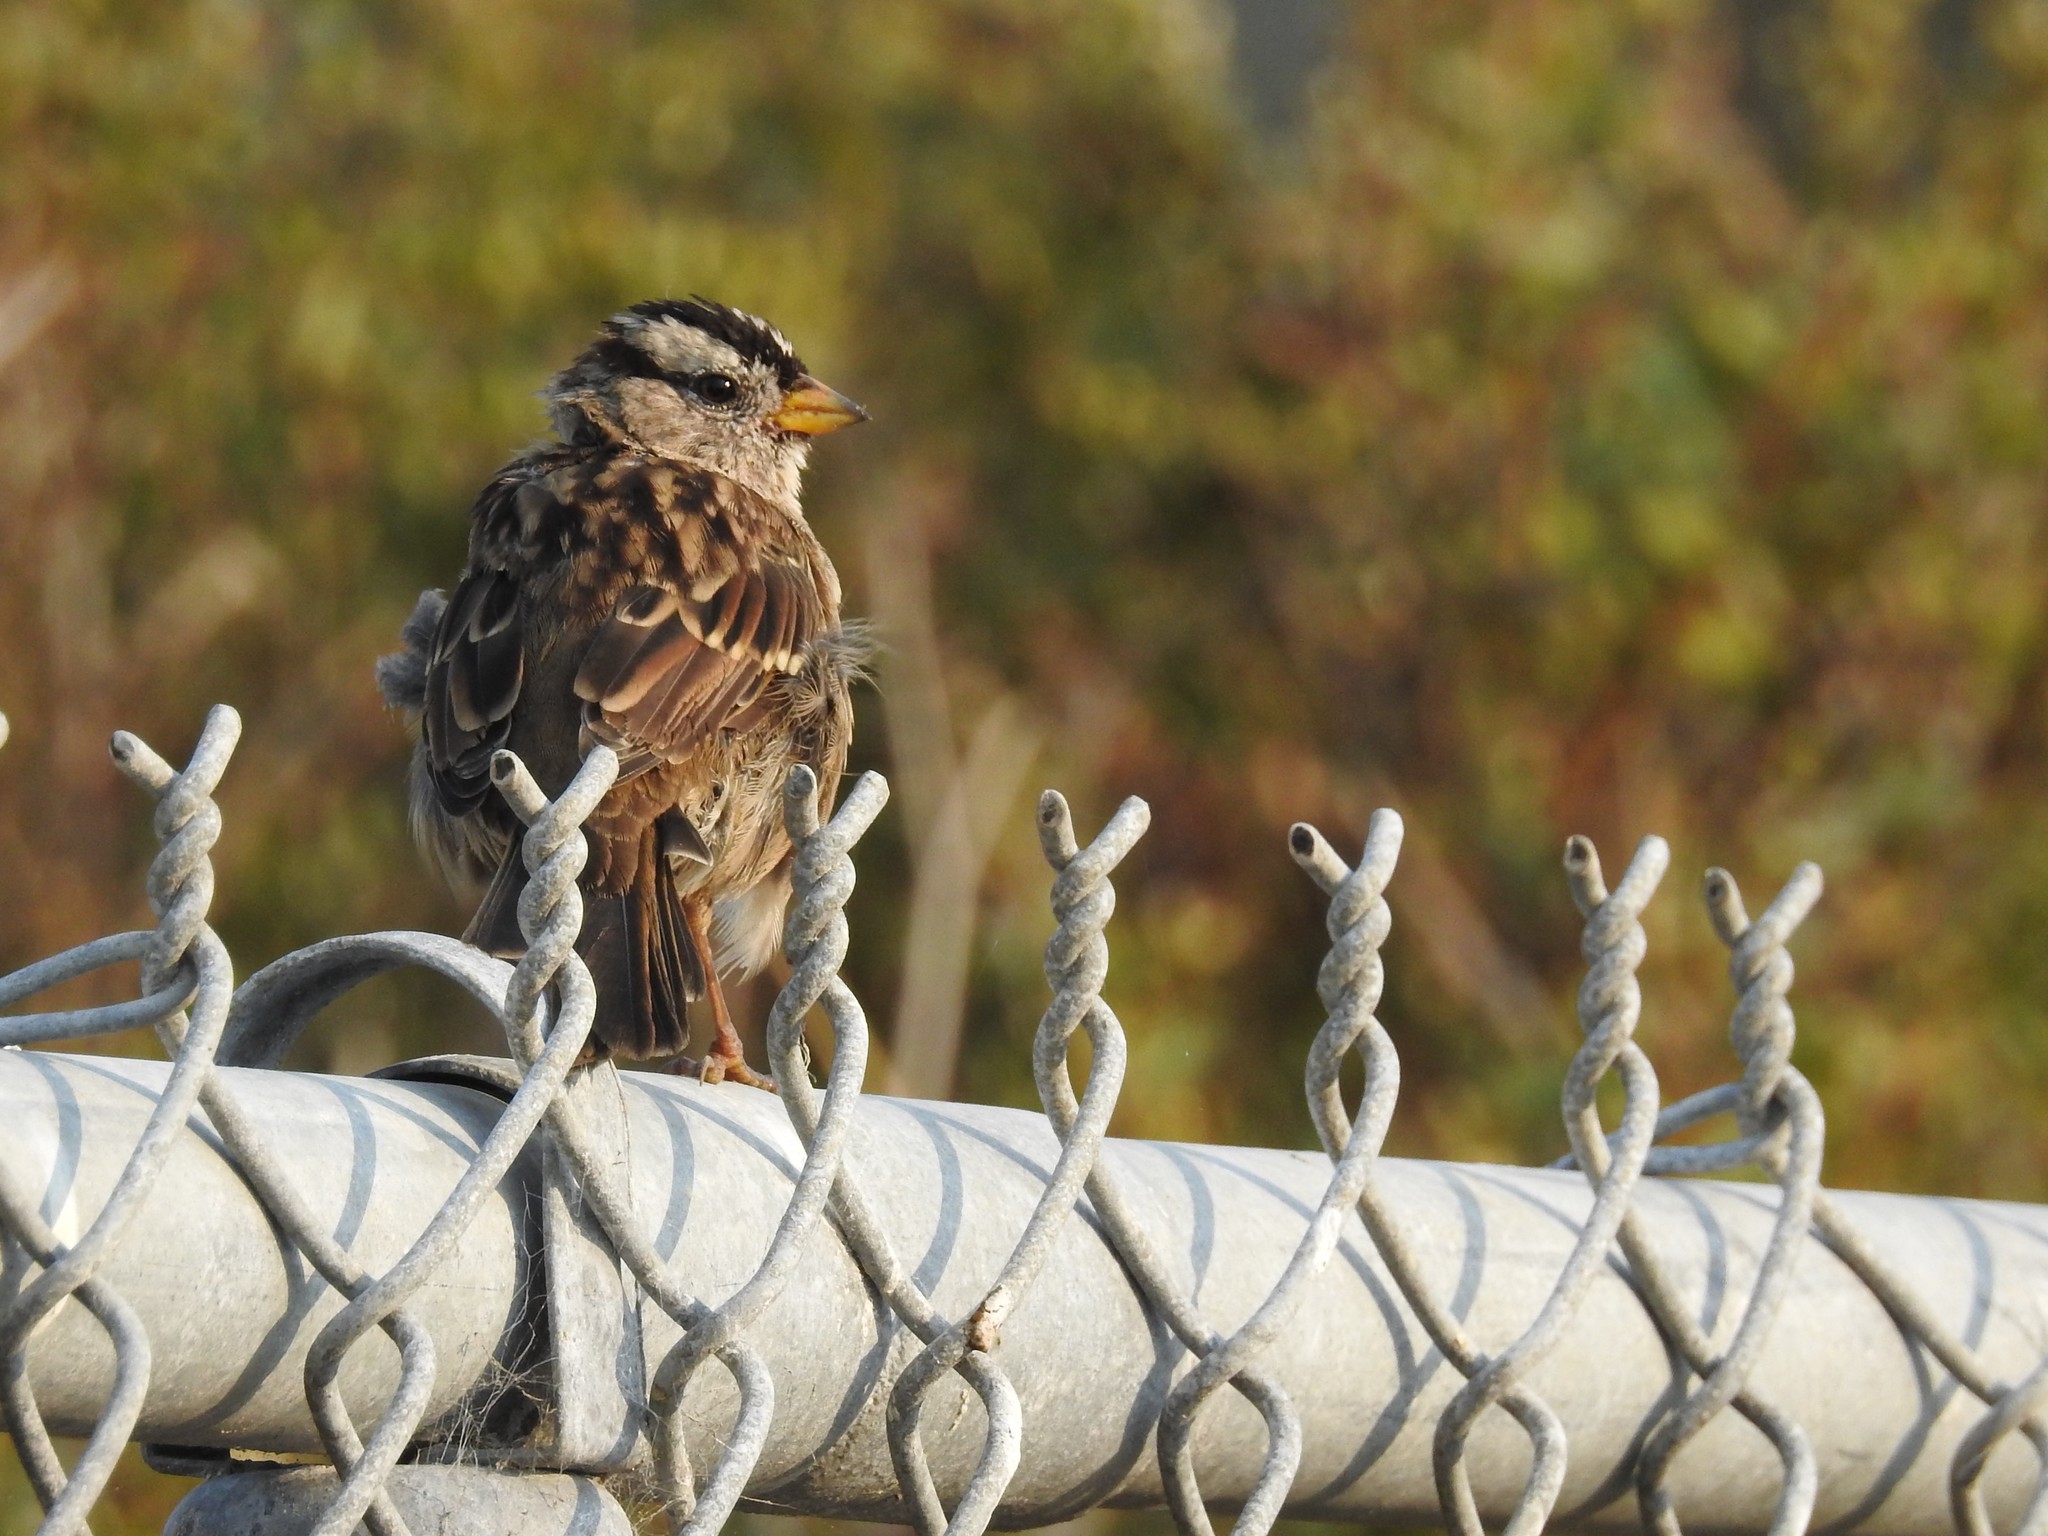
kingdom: Animalia
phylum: Chordata
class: Aves
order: Passeriformes
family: Passerellidae
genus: Zonotrichia
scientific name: Zonotrichia leucophrys
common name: White-crowned sparrow
